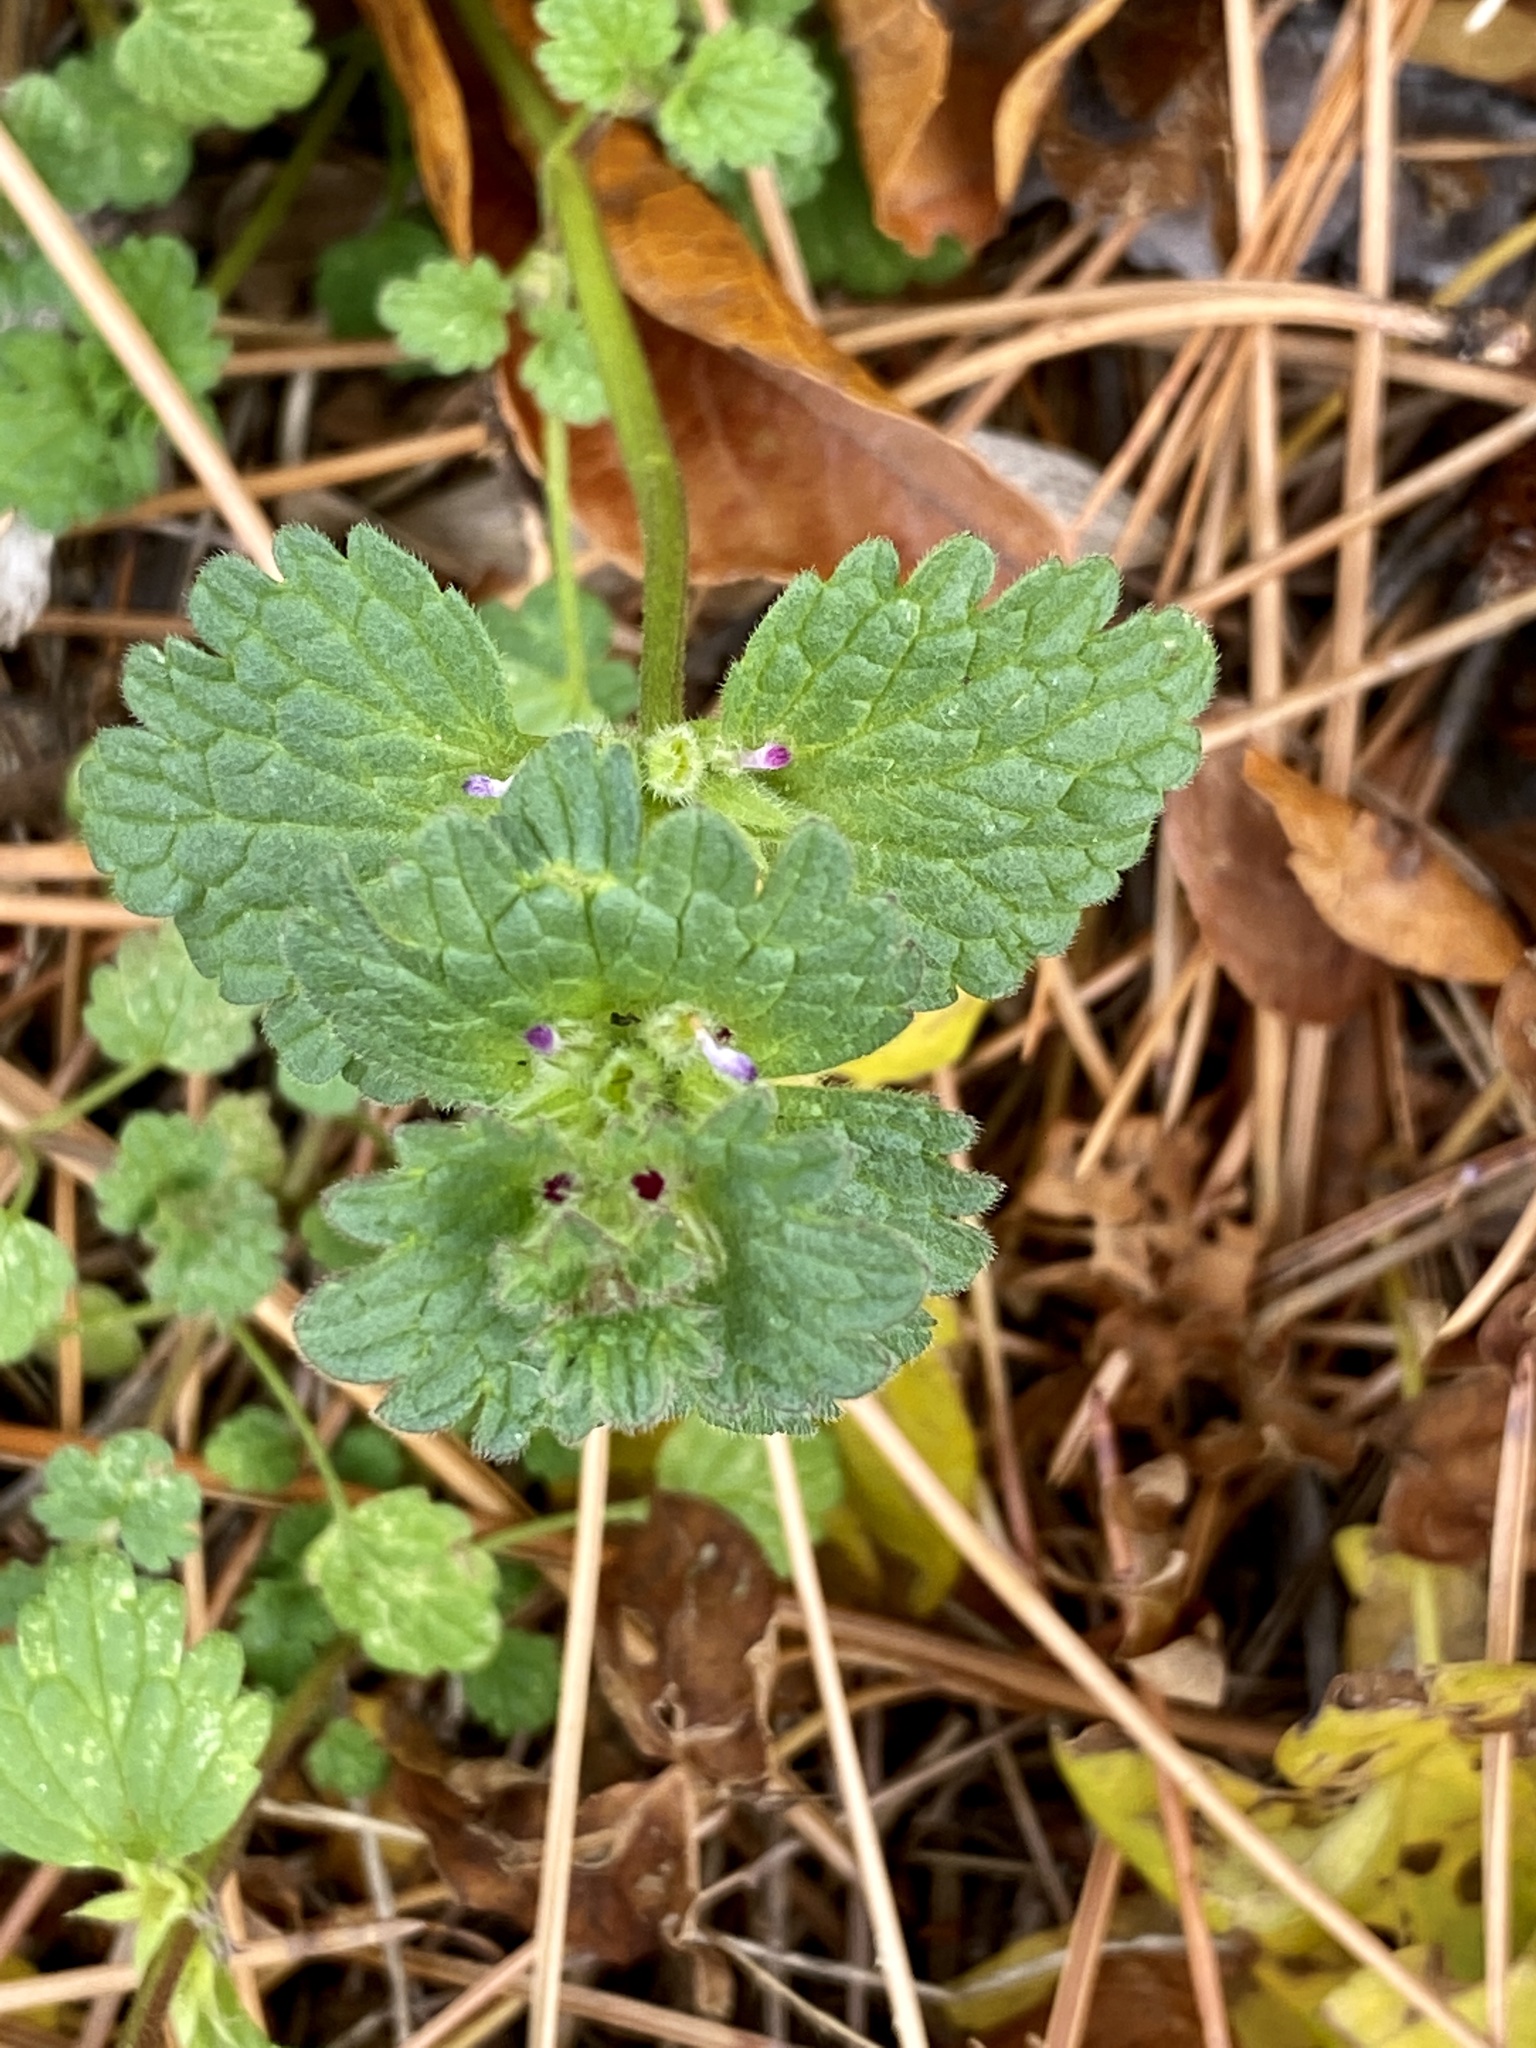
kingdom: Plantae
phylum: Tracheophyta
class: Magnoliopsida
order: Lamiales
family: Lamiaceae
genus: Lamium
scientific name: Lamium amplexicaule
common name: Henbit dead-nettle
